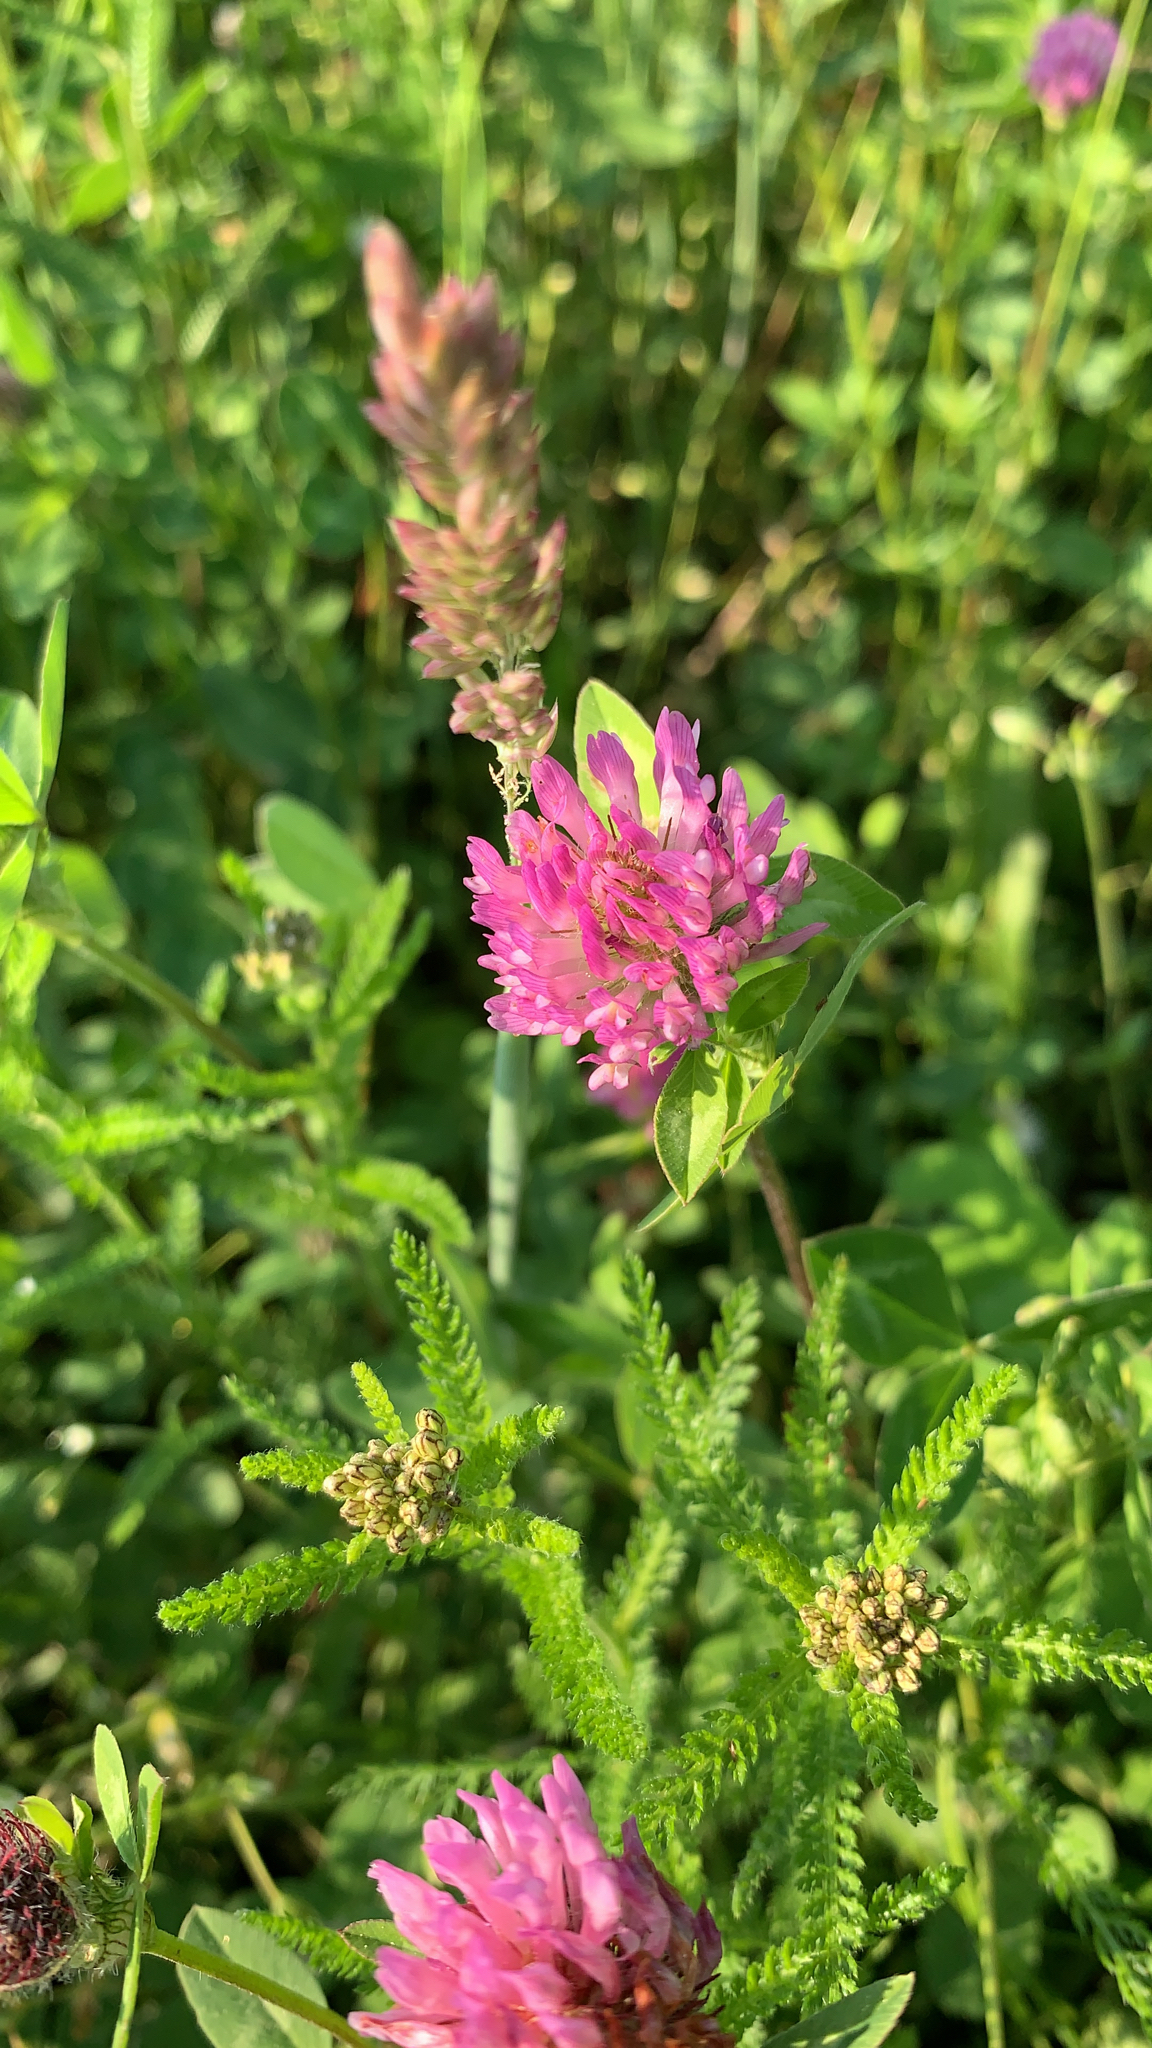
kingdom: Plantae
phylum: Tracheophyta
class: Magnoliopsida
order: Fabales
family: Fabaceae
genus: Trifolium
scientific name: Trifolium pratense
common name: Red clover
